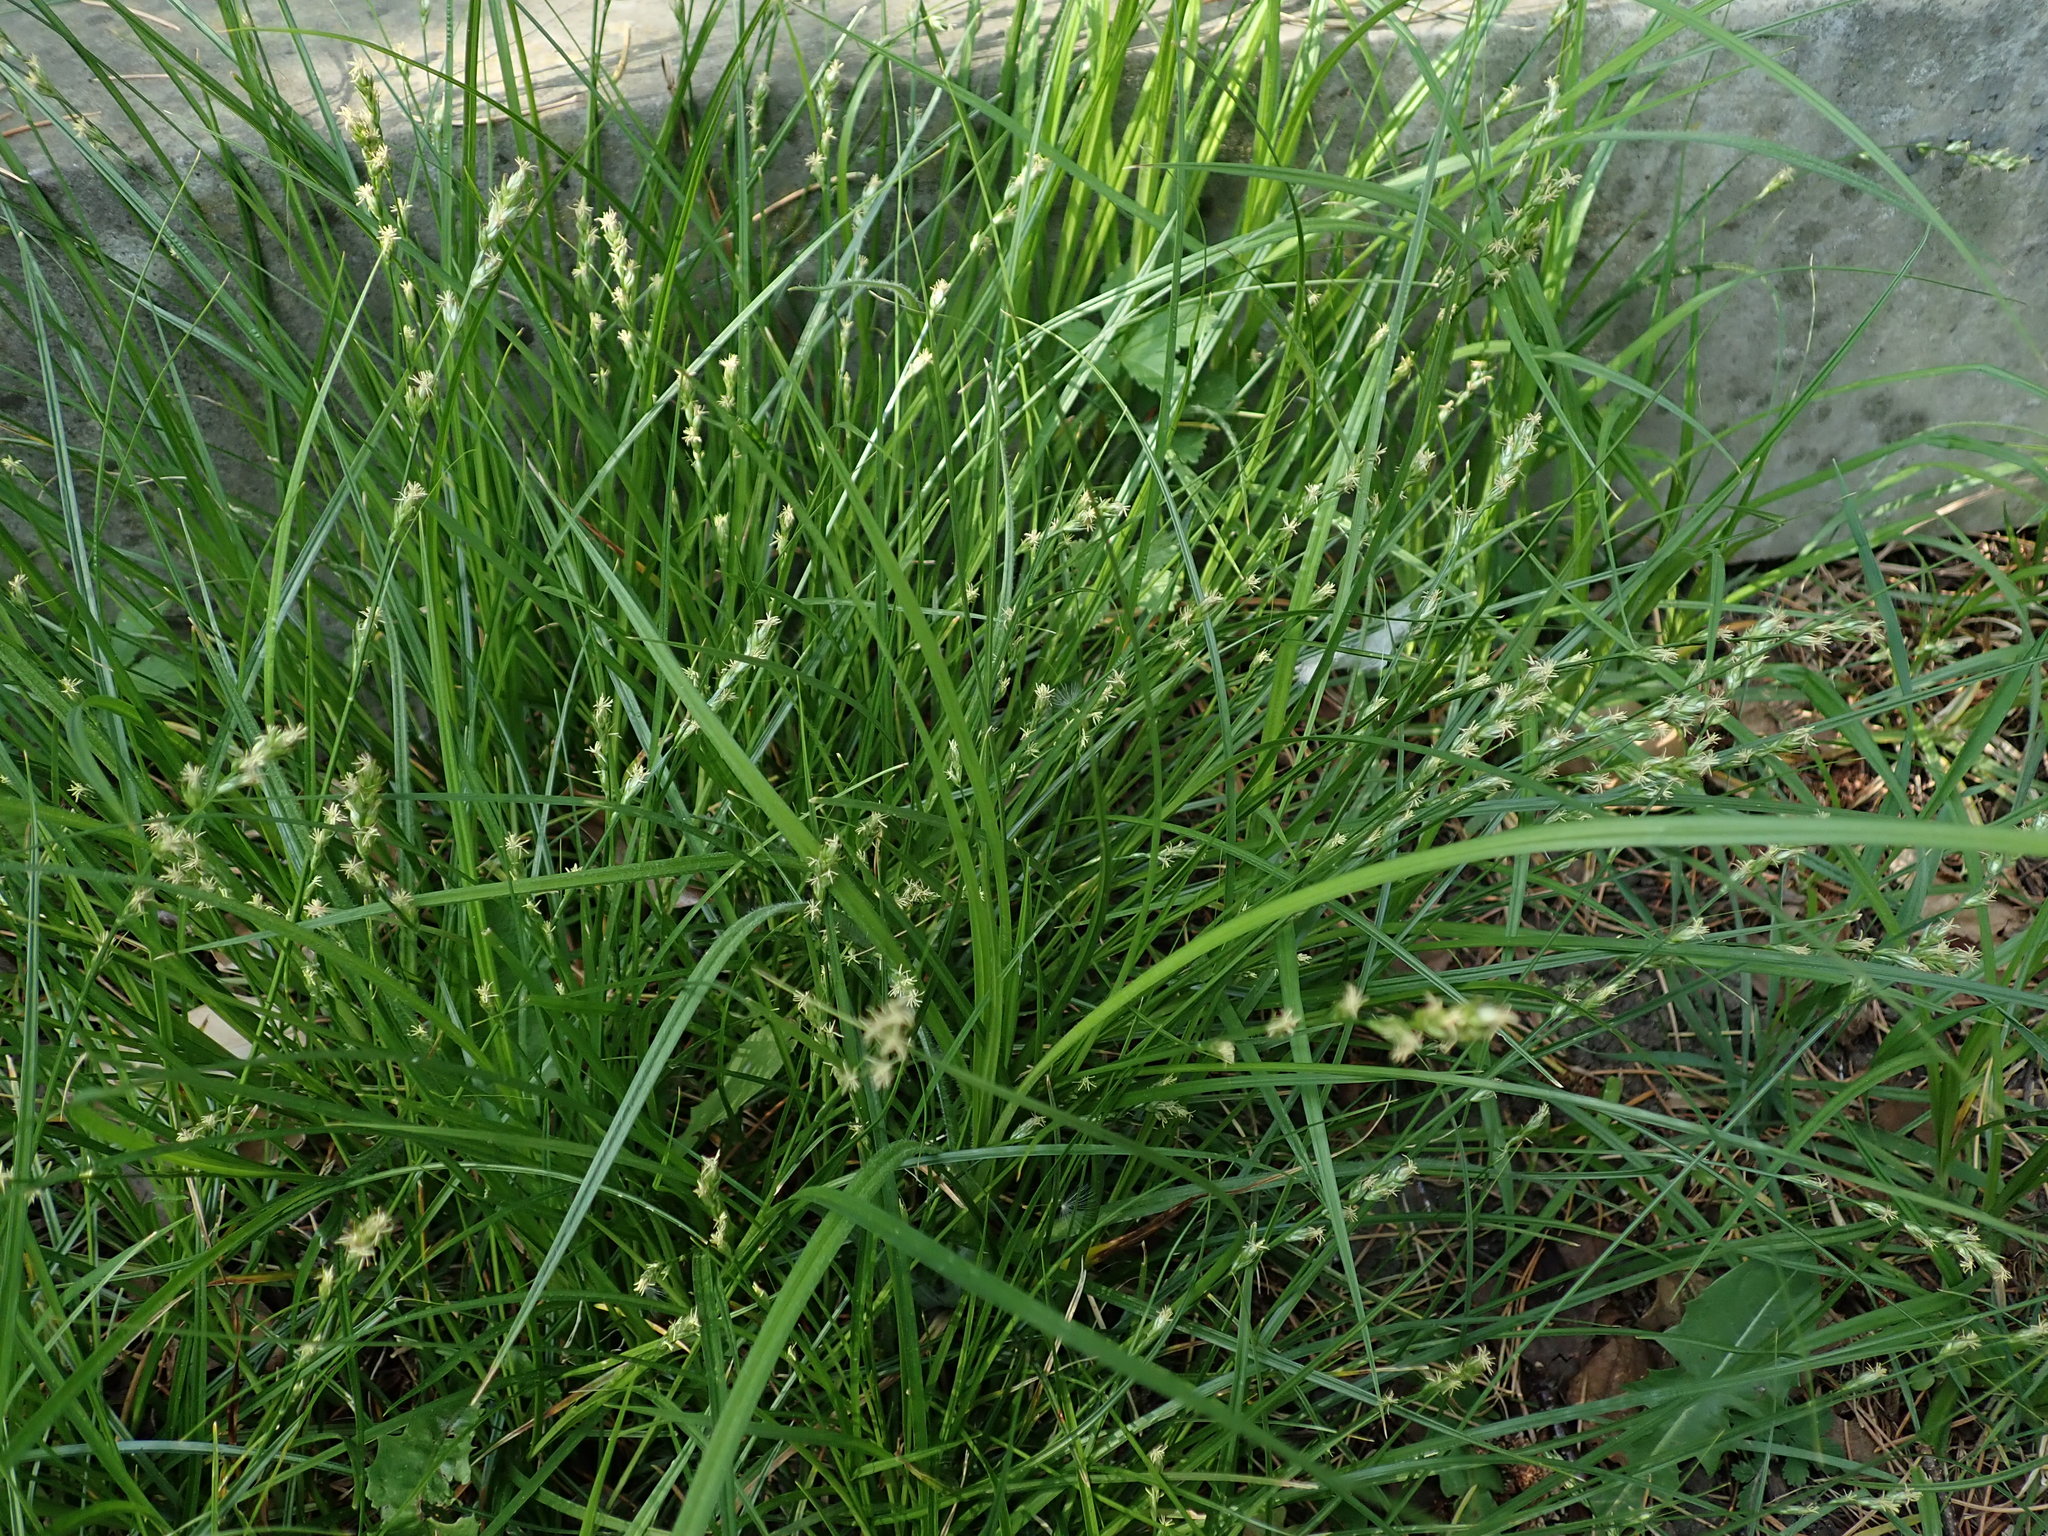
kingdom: Plantae
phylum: Tracheophyta
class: Liliopsida
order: Poales
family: Cyperaceae
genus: Carex
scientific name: Carex divulsa
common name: Grassland sedge
